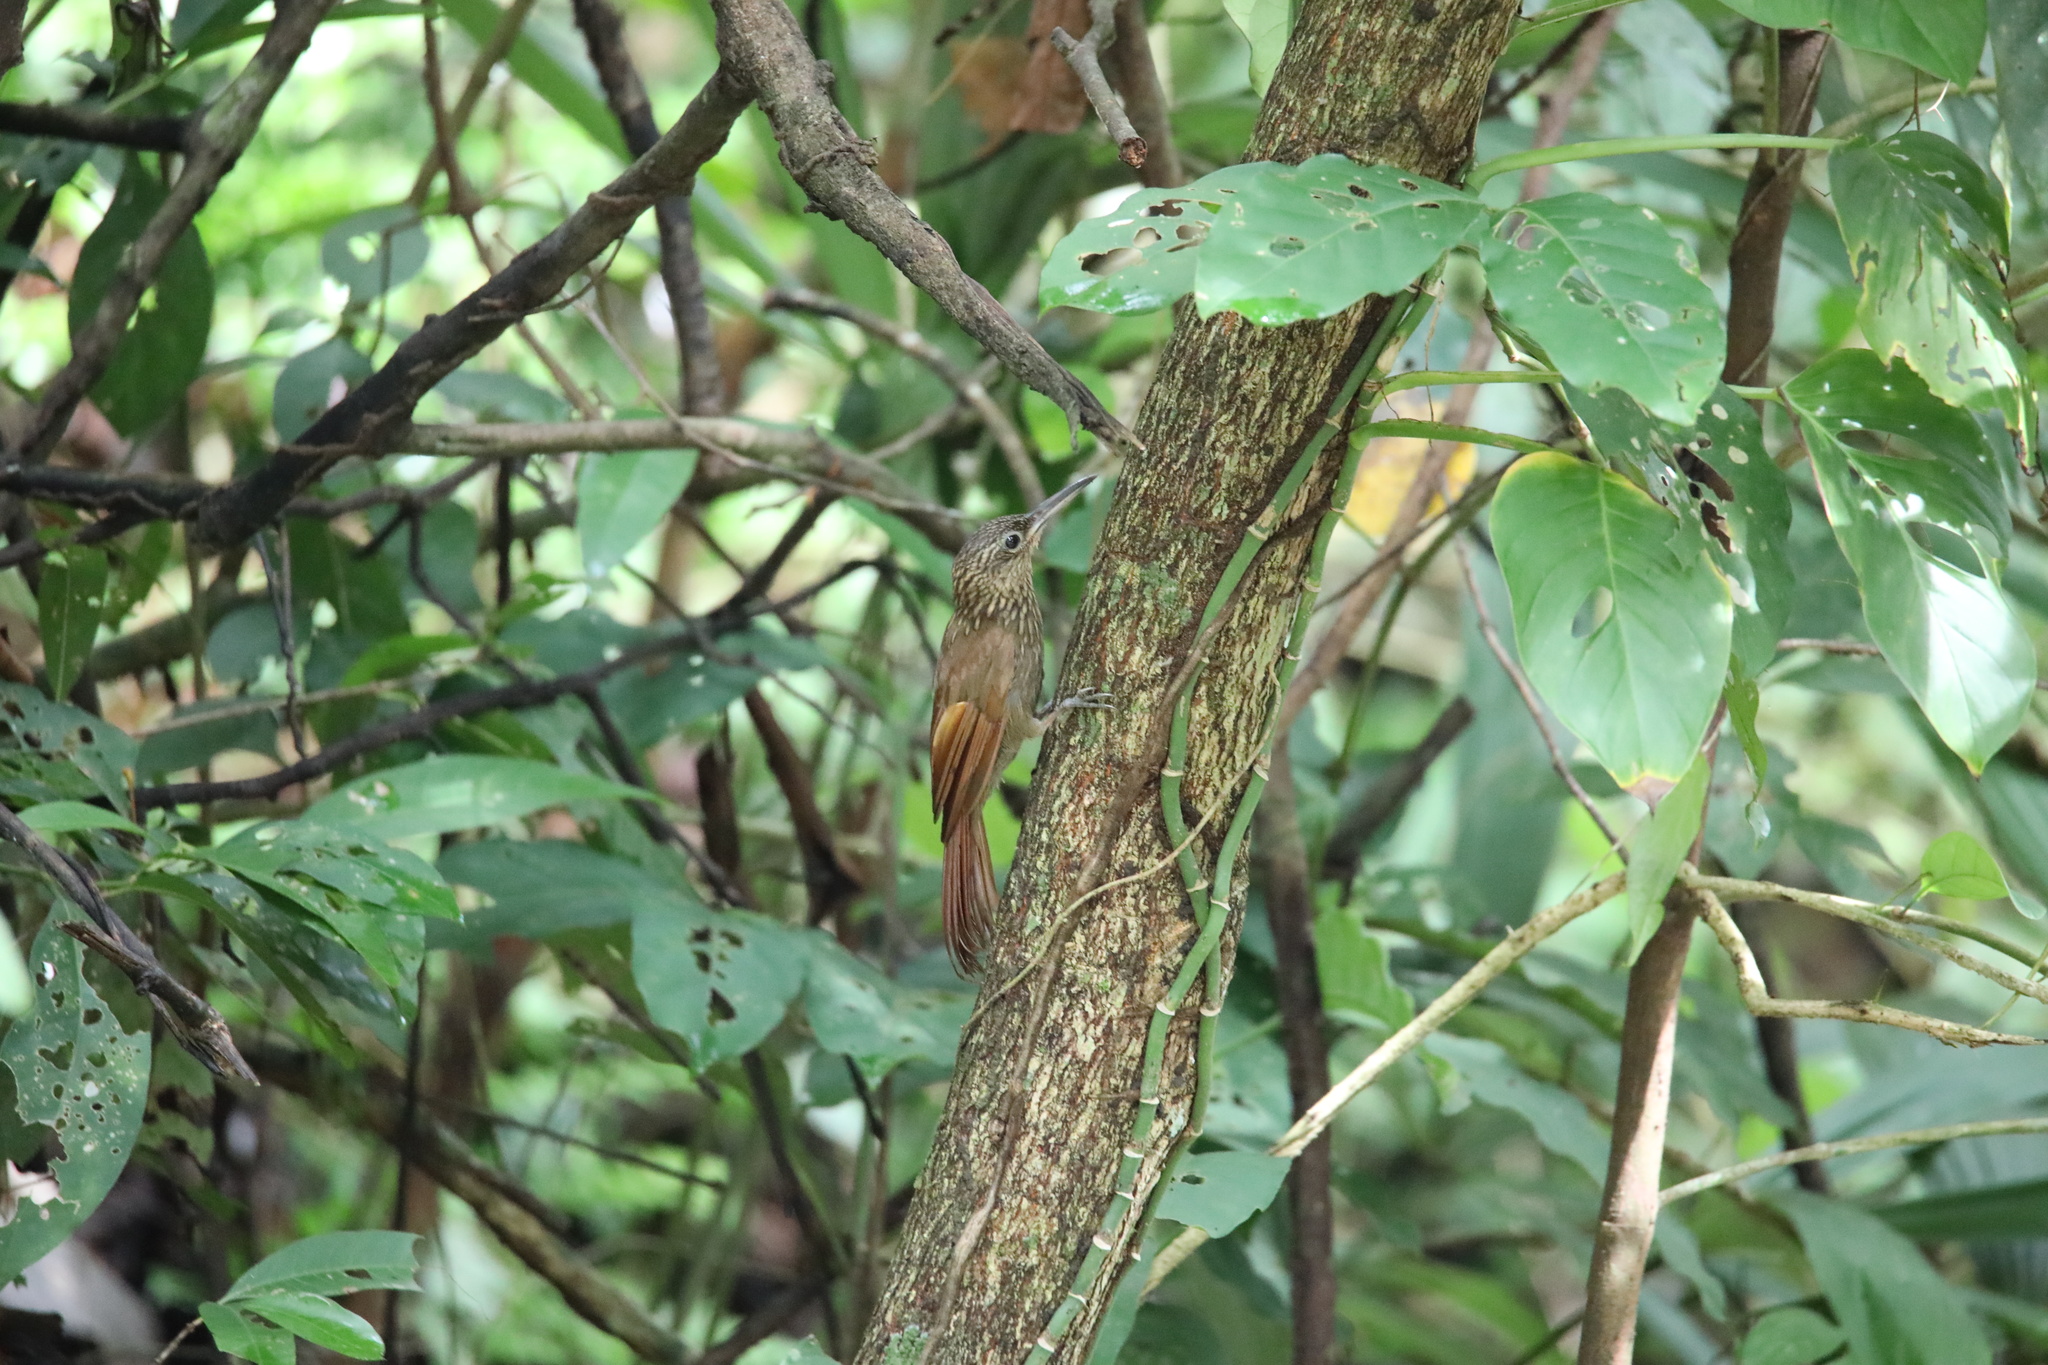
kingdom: Animalia
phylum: Chordata
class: Aves
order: Passeriformes
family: Furnariidae
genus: Xiphorhynchus
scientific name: Xiphorhynchus susurrans
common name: Cocoa woodcreeper
